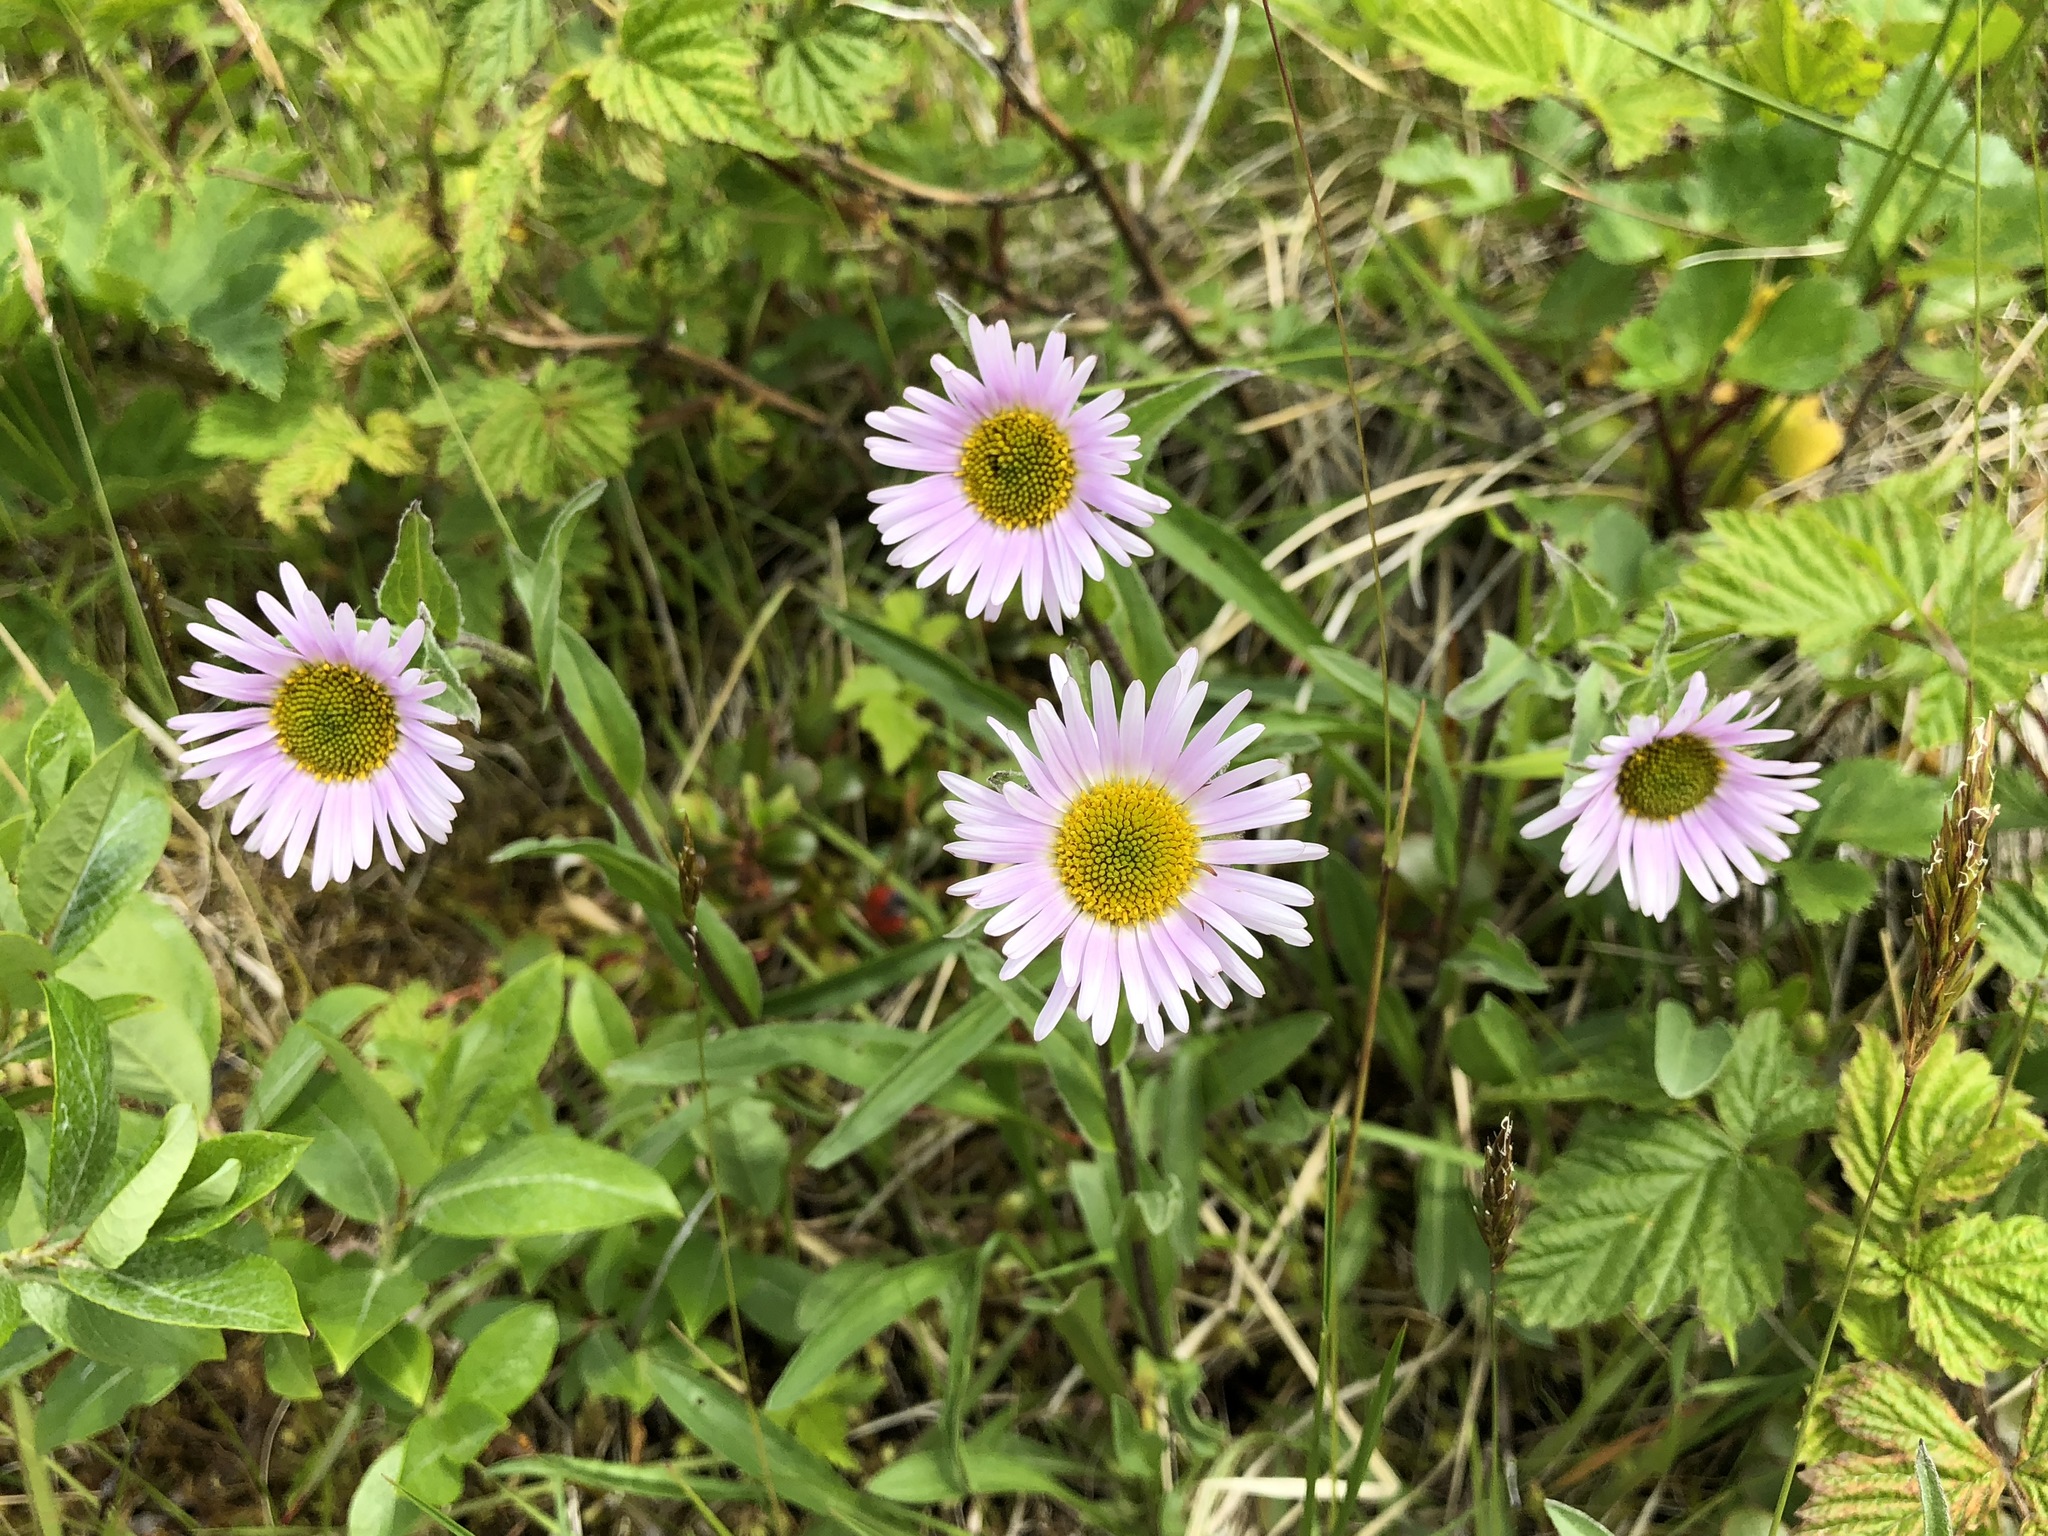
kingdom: Plantae
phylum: Tracheophyta
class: Magnoliopsida
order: Asterales
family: Asteraceae
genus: Erigeron
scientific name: Erigeron peregrinus
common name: Peregrine fleabane
